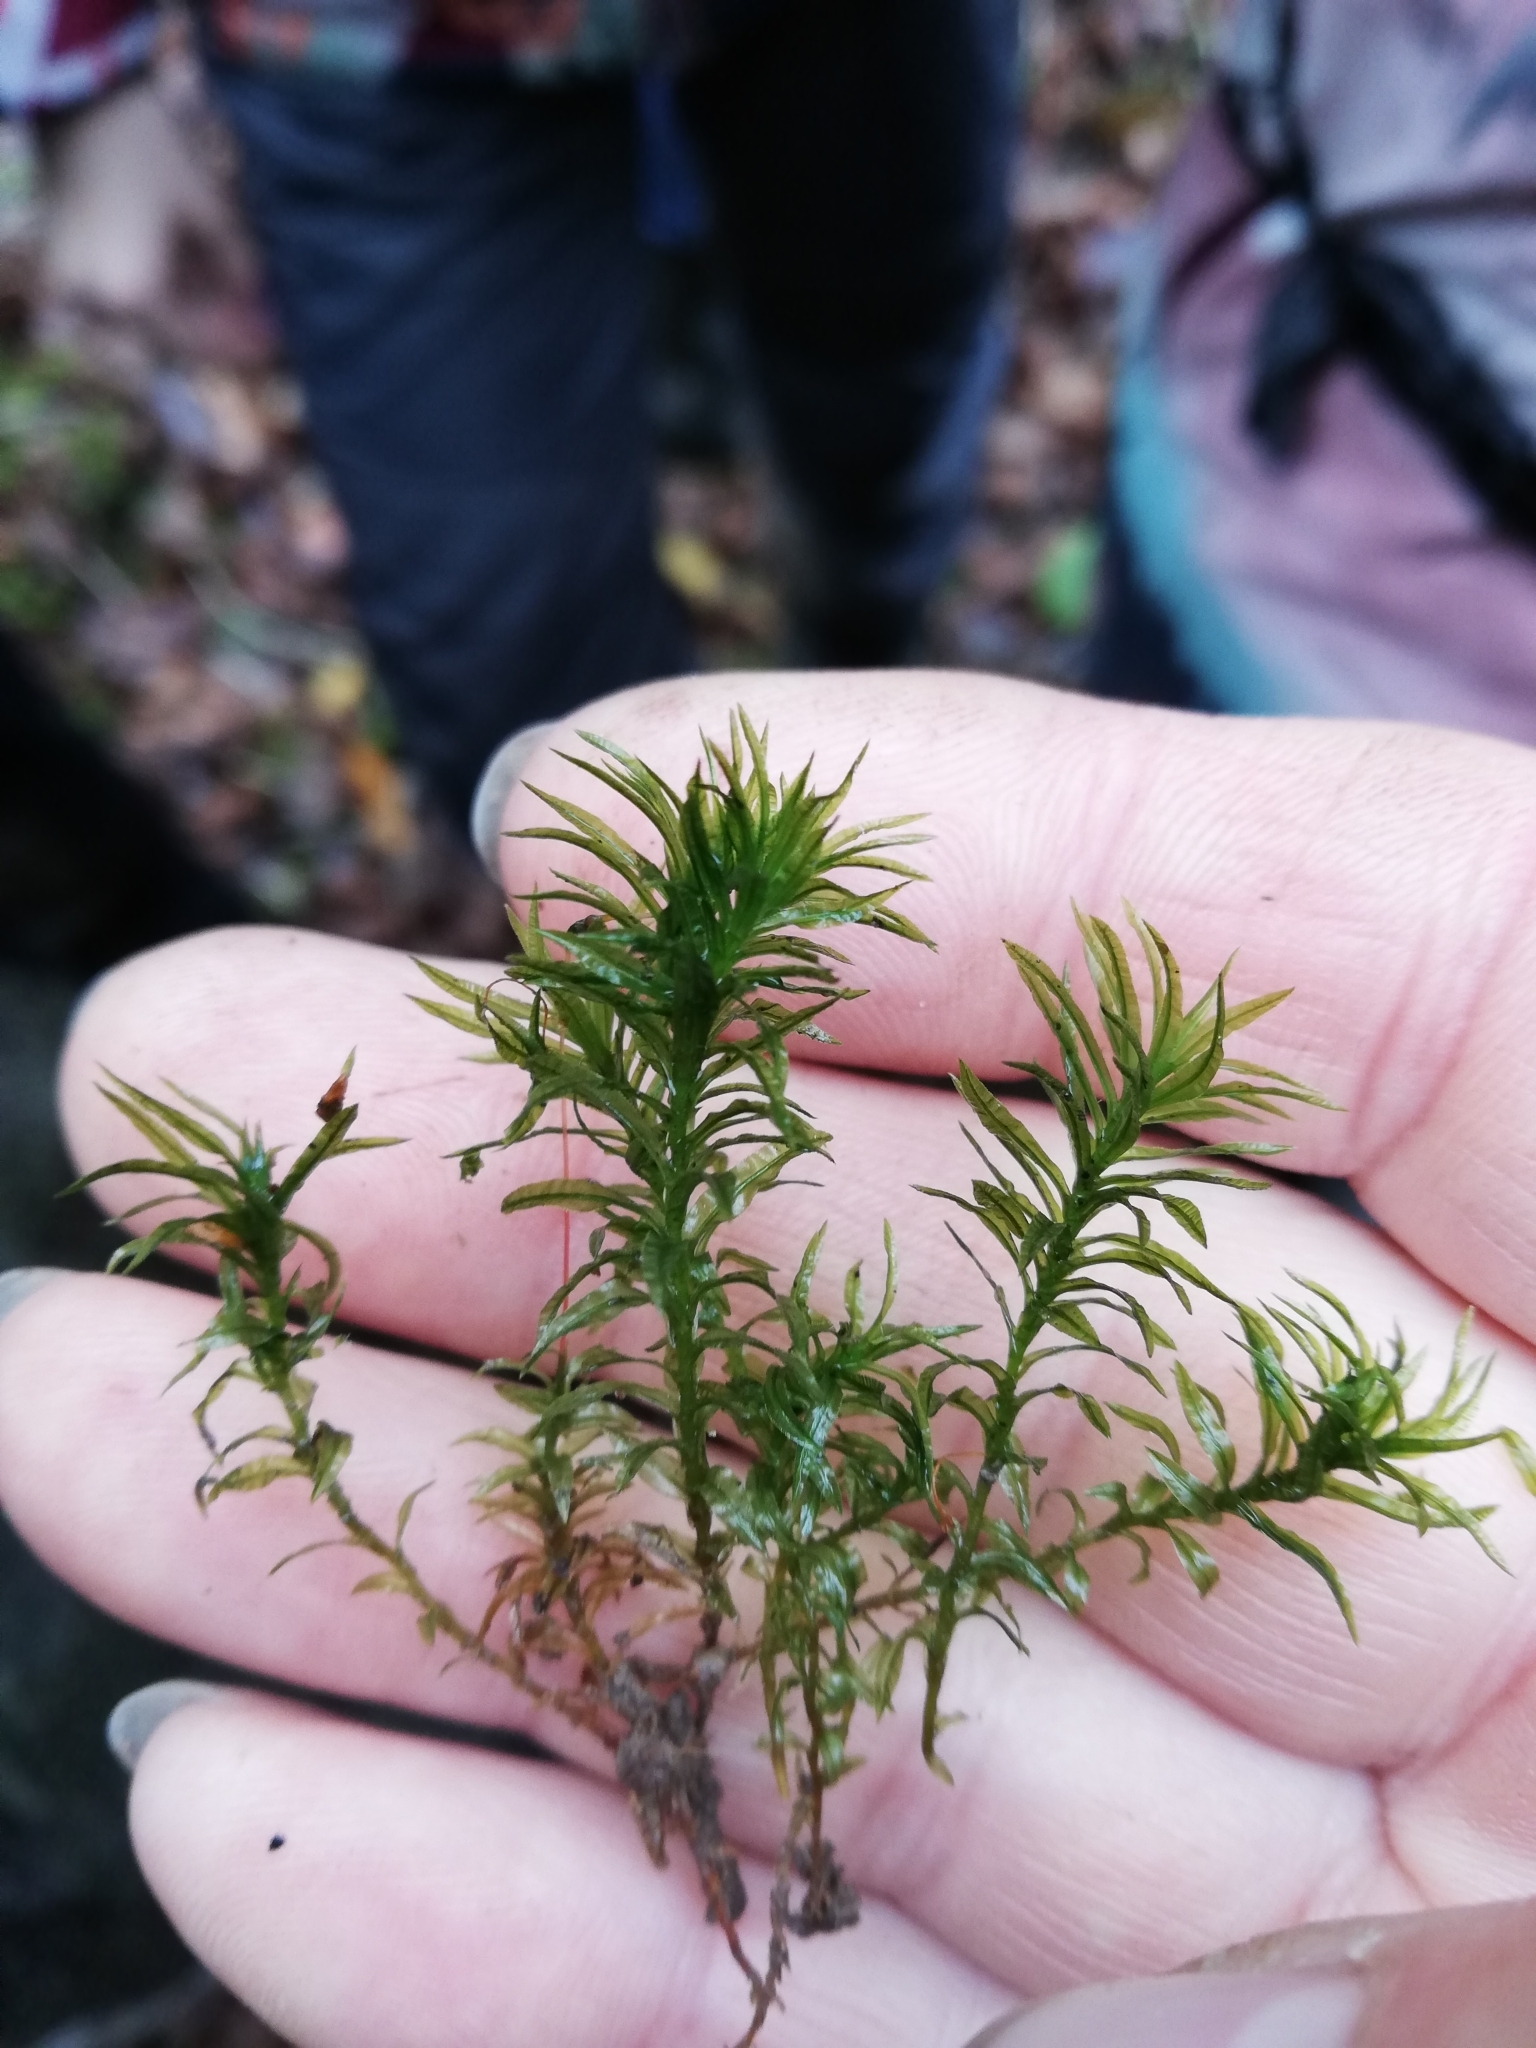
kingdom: Plantae
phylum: Bryophyta
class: Polytrichopsida
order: Polytrichales
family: Polytrichaceae
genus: Atrichum
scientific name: Atrichum undulatum
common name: Common smoothcap
